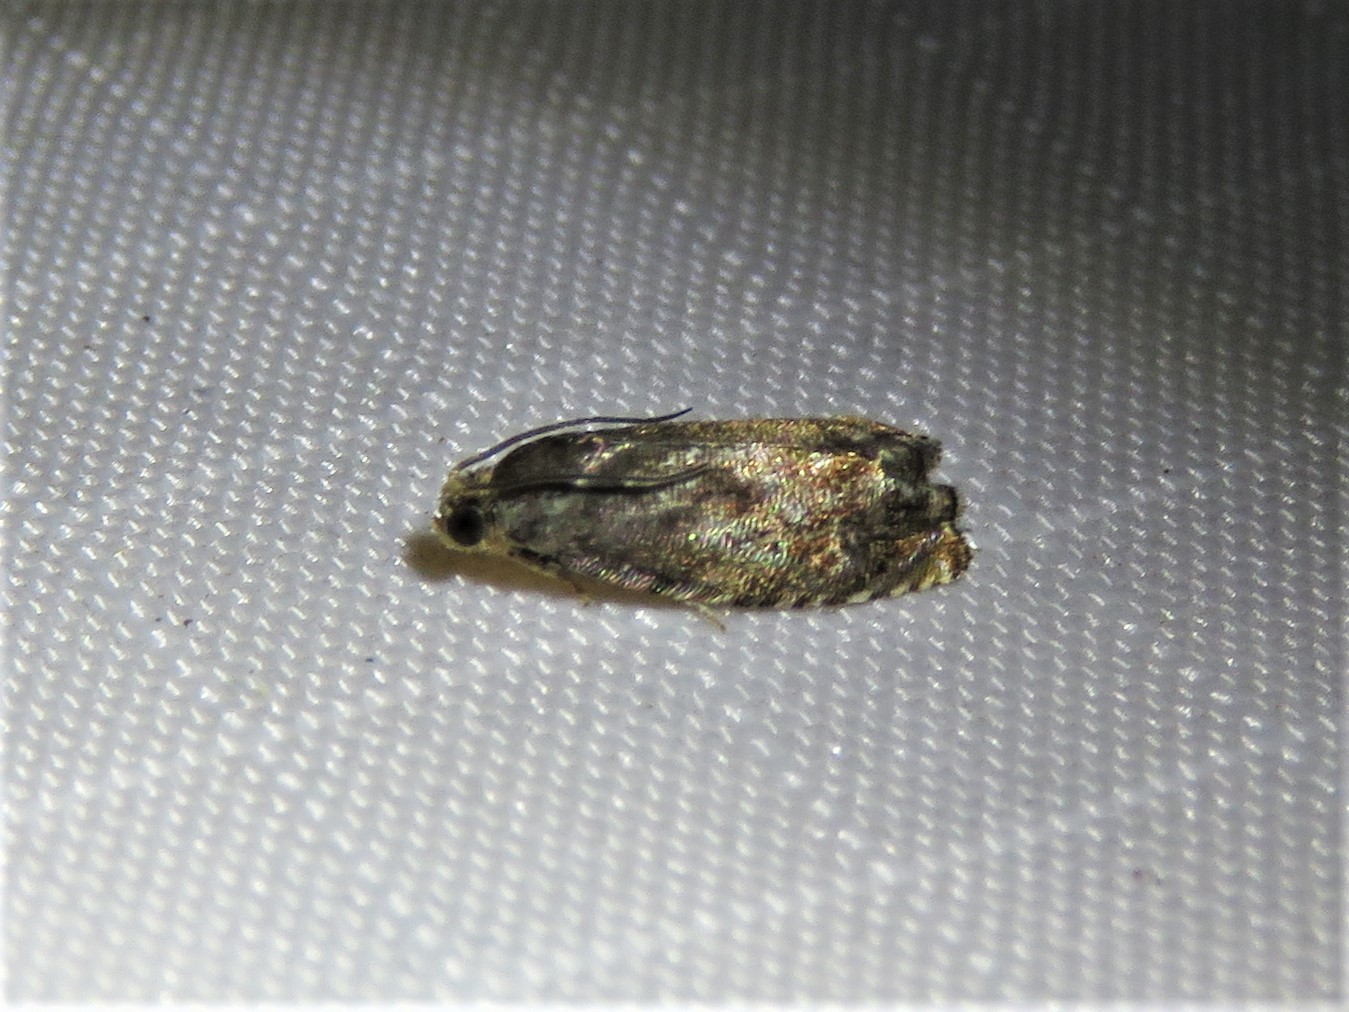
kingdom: Animalia
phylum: Arthropoda
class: Insecta
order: Lepidoptera
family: Tortricidae
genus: Cydia
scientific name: Cydia caryana
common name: Hickory shuckworm moth
